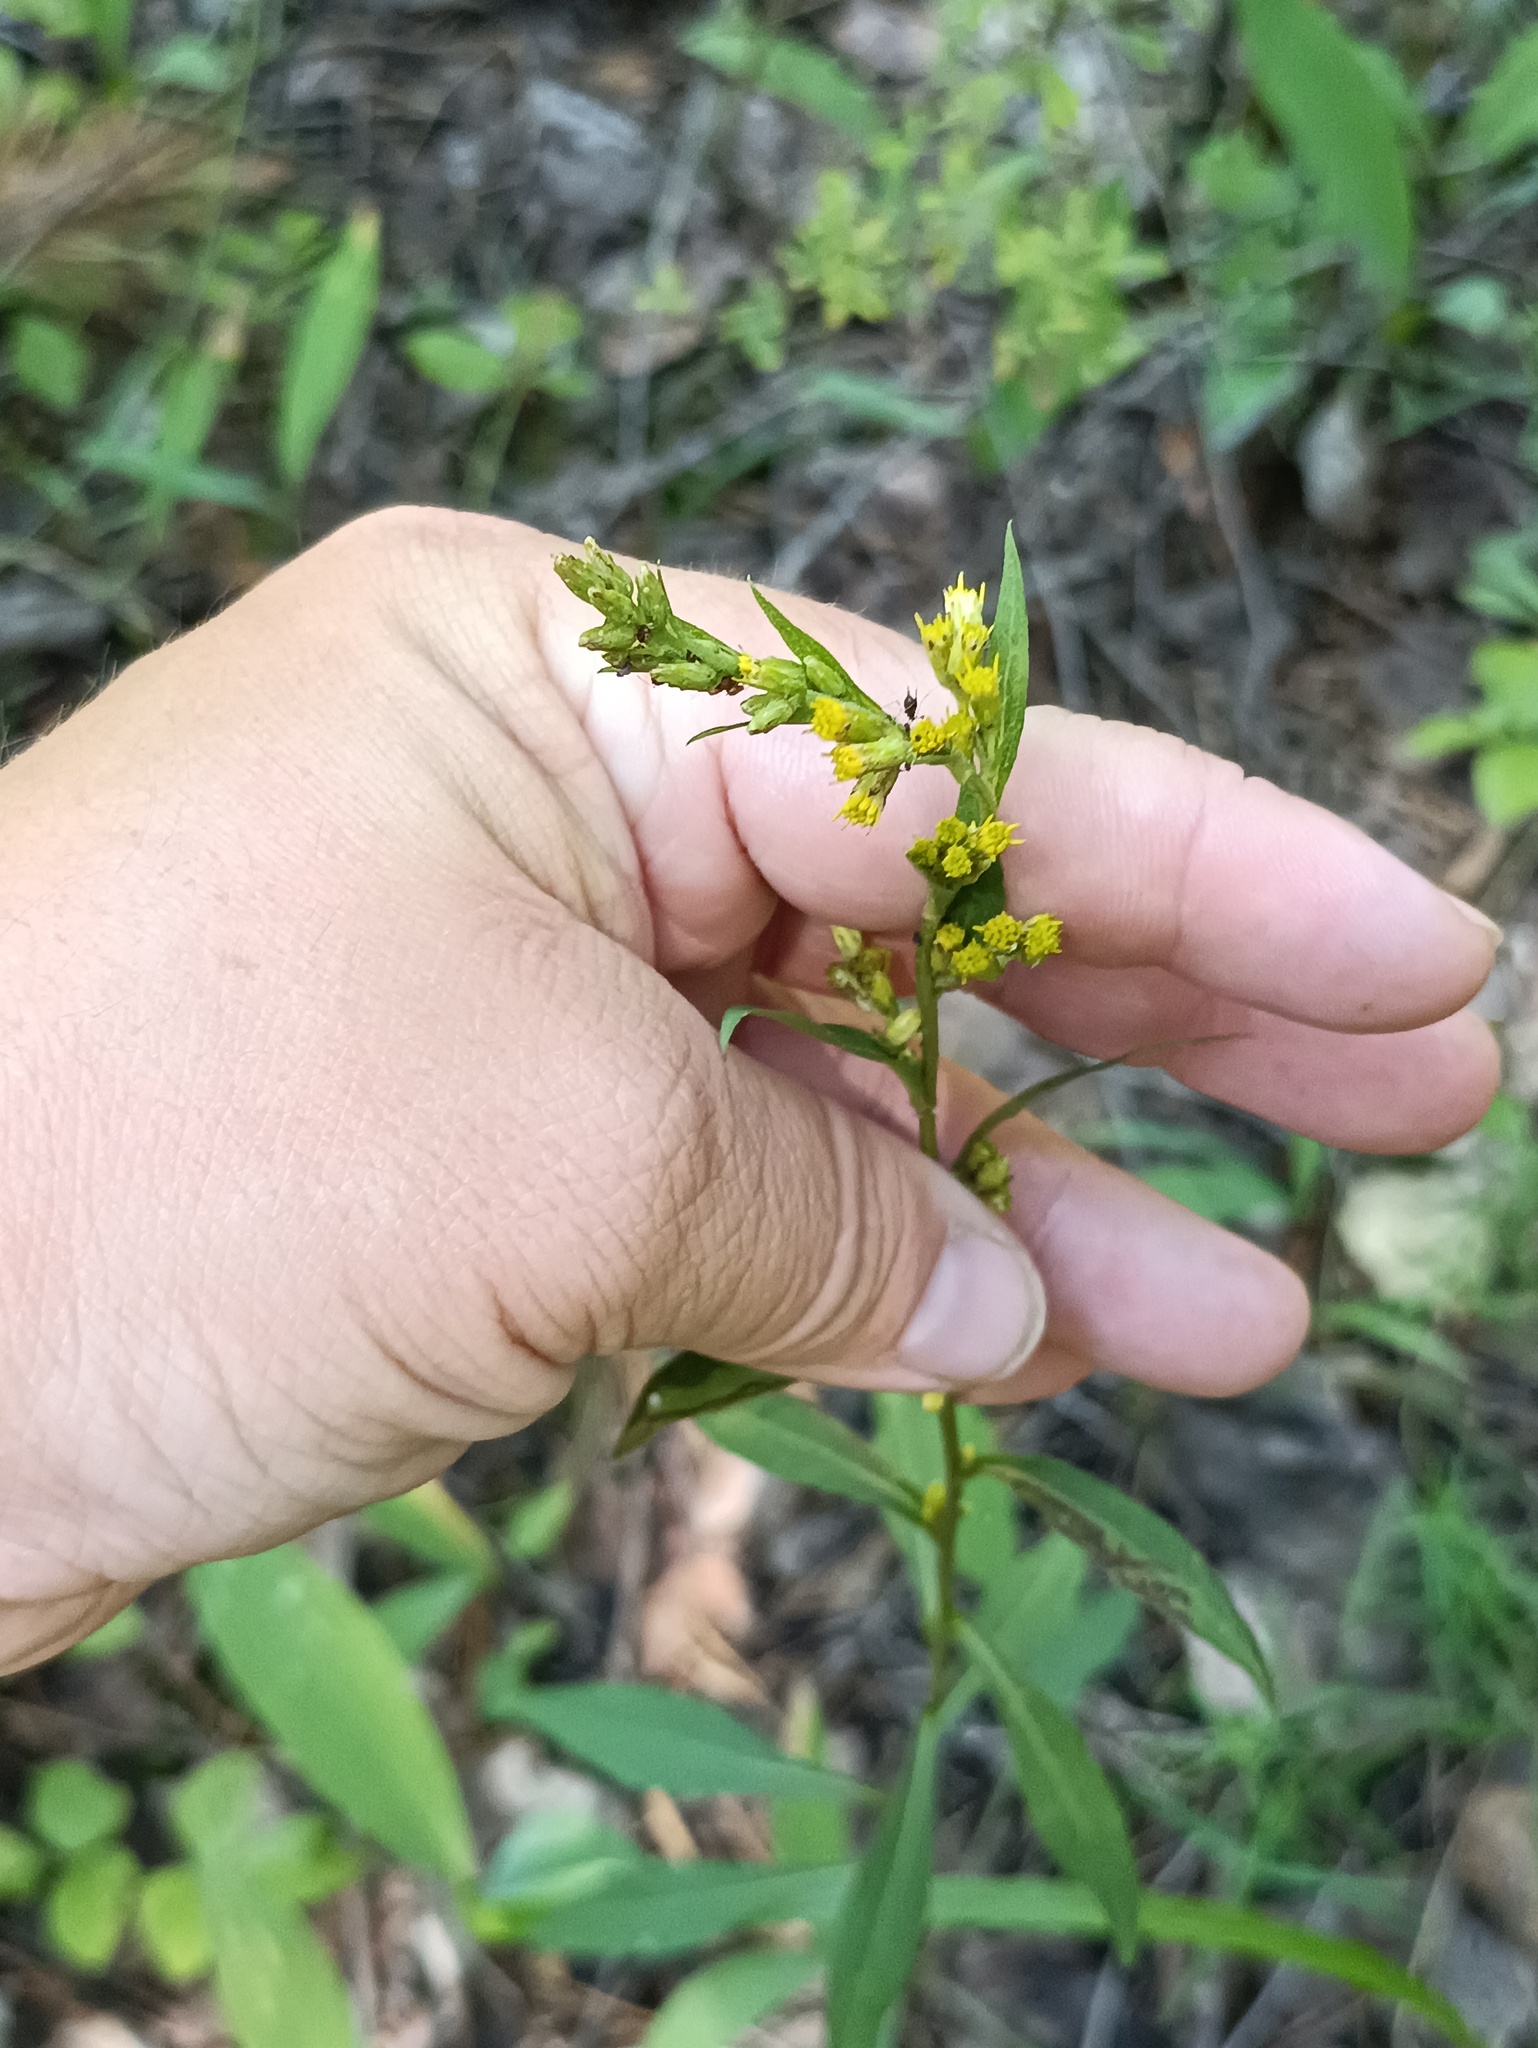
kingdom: Plantae
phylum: Tracheophyta
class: Magnoliopsida
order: Asterales
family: Asteraceae
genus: Solidago
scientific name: Solidago virgaurea
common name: Goldenrod
